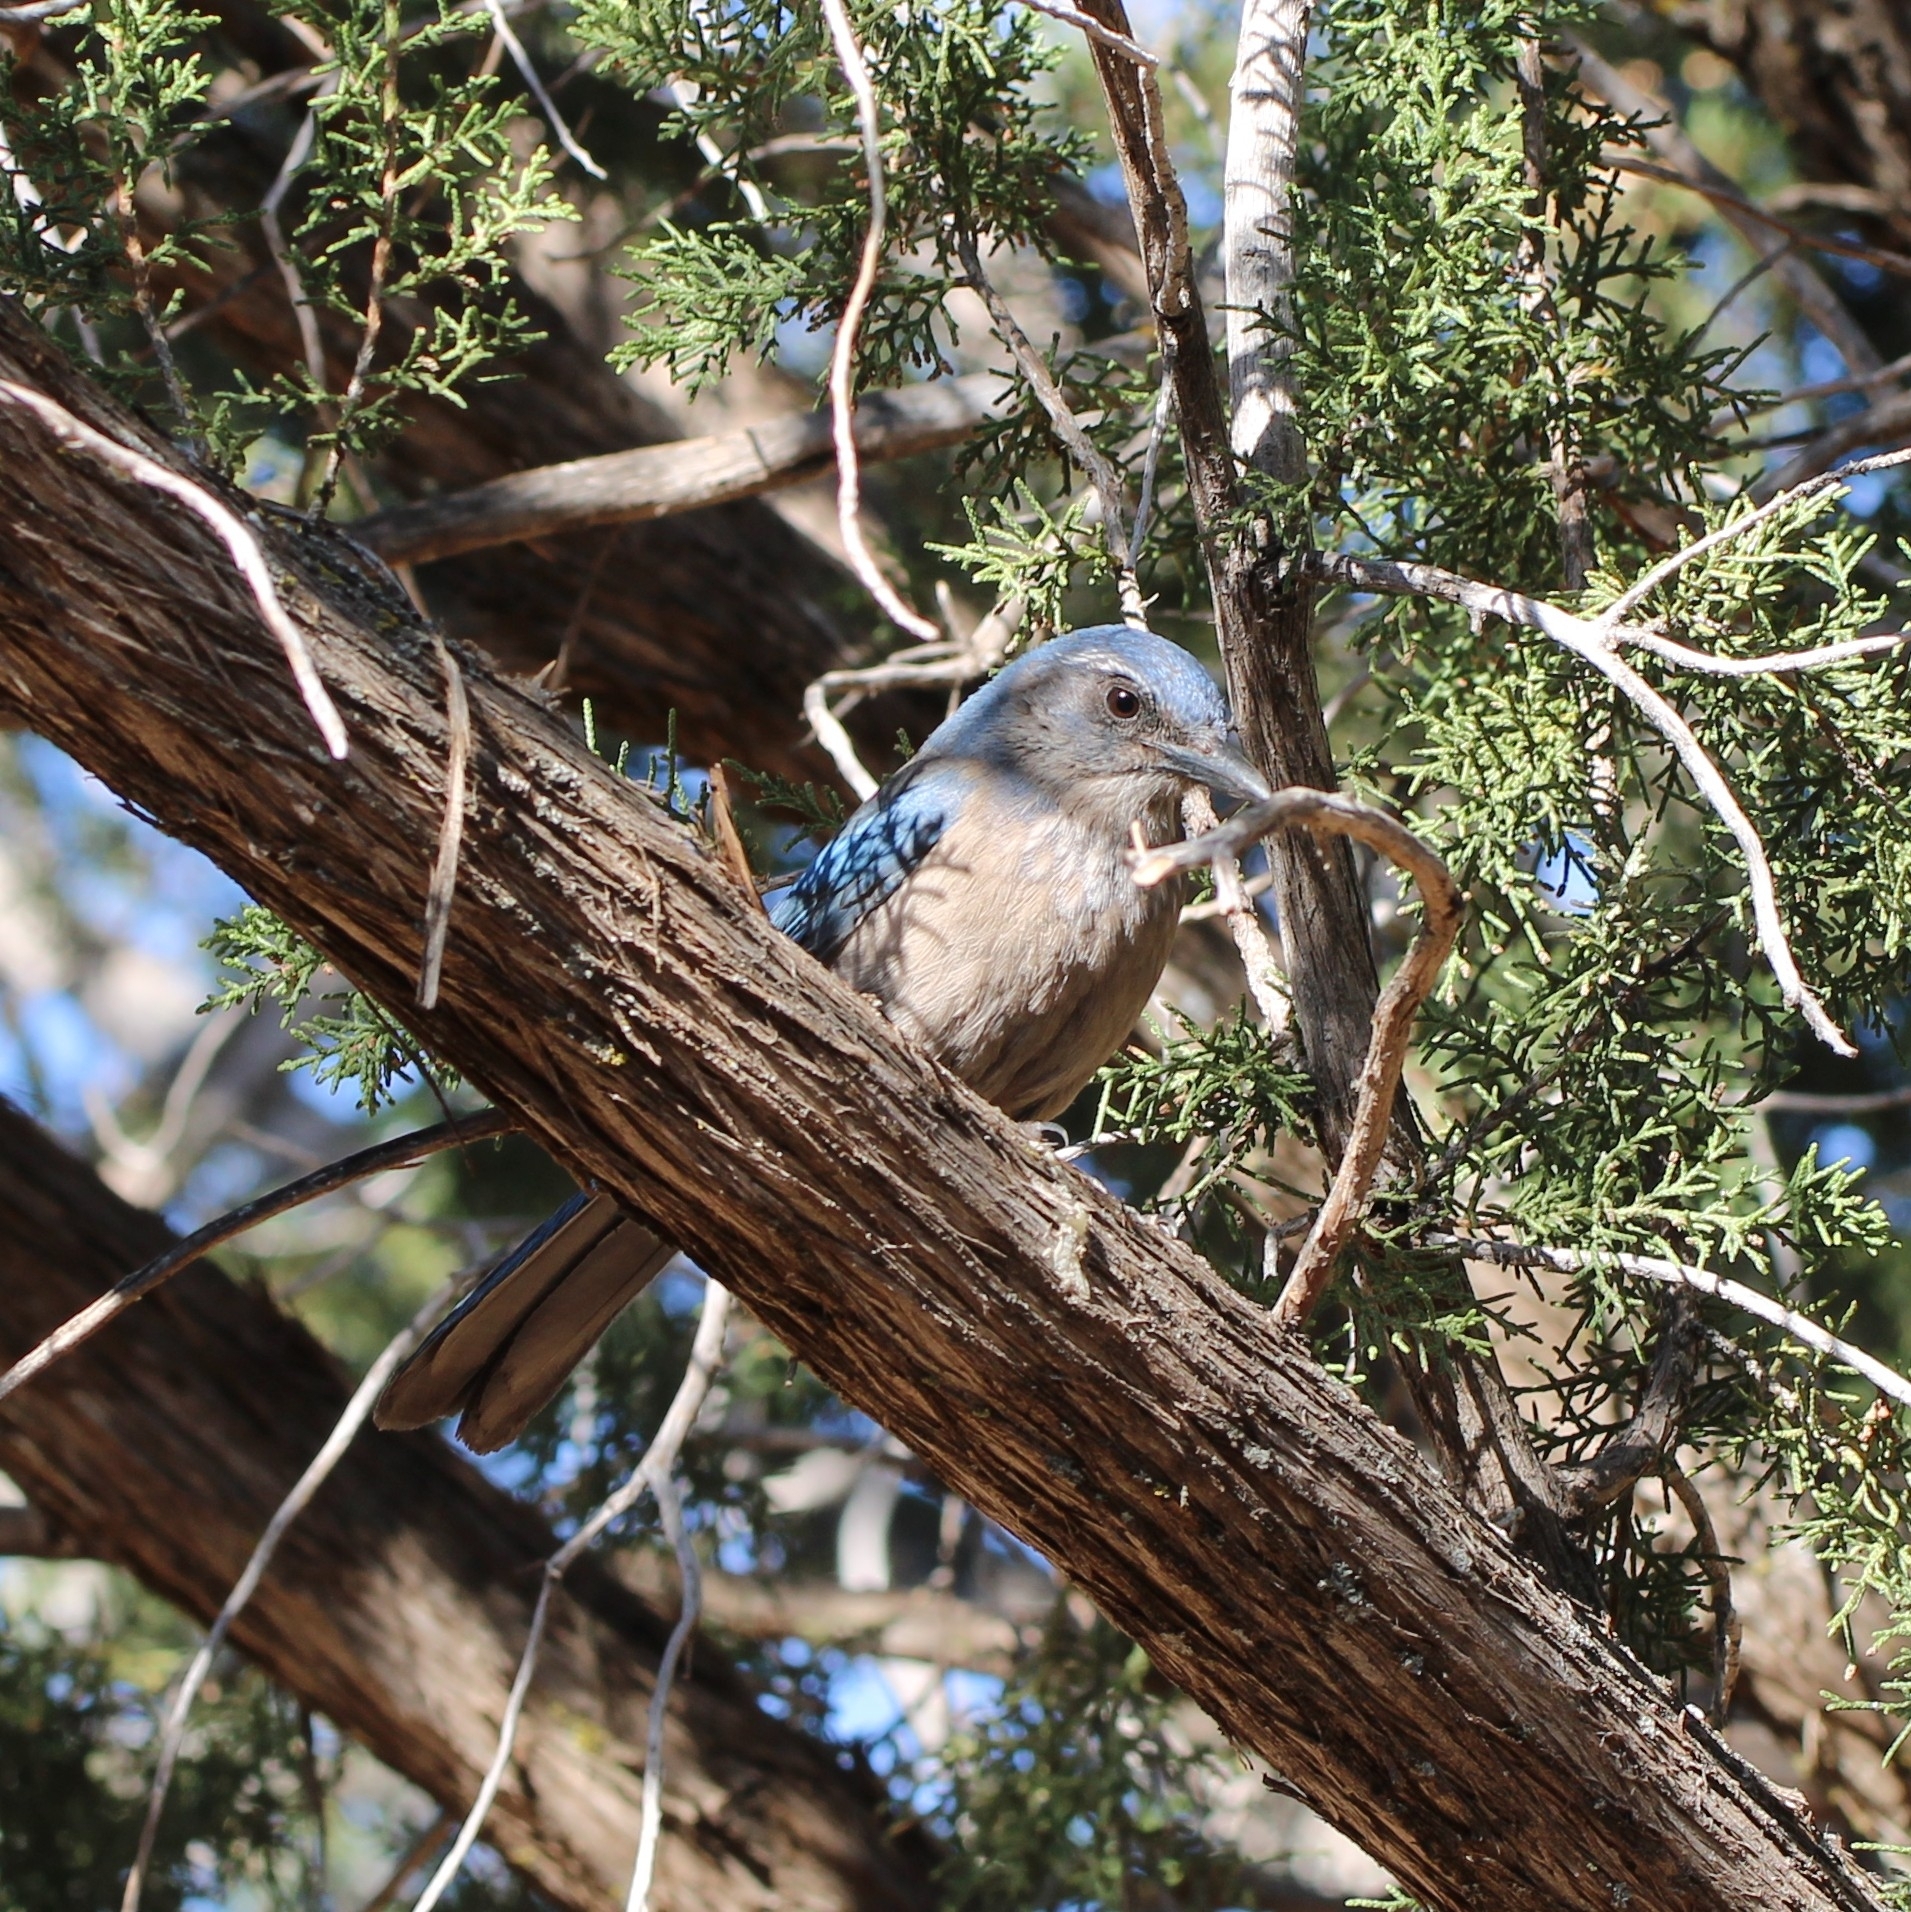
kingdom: Animalia
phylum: Chordata
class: Aves
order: Passeriformes
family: Corvidae
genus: Aphelocoma
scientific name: Aphelocoma woodhouseii
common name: Woodhouse's scrub-jay
